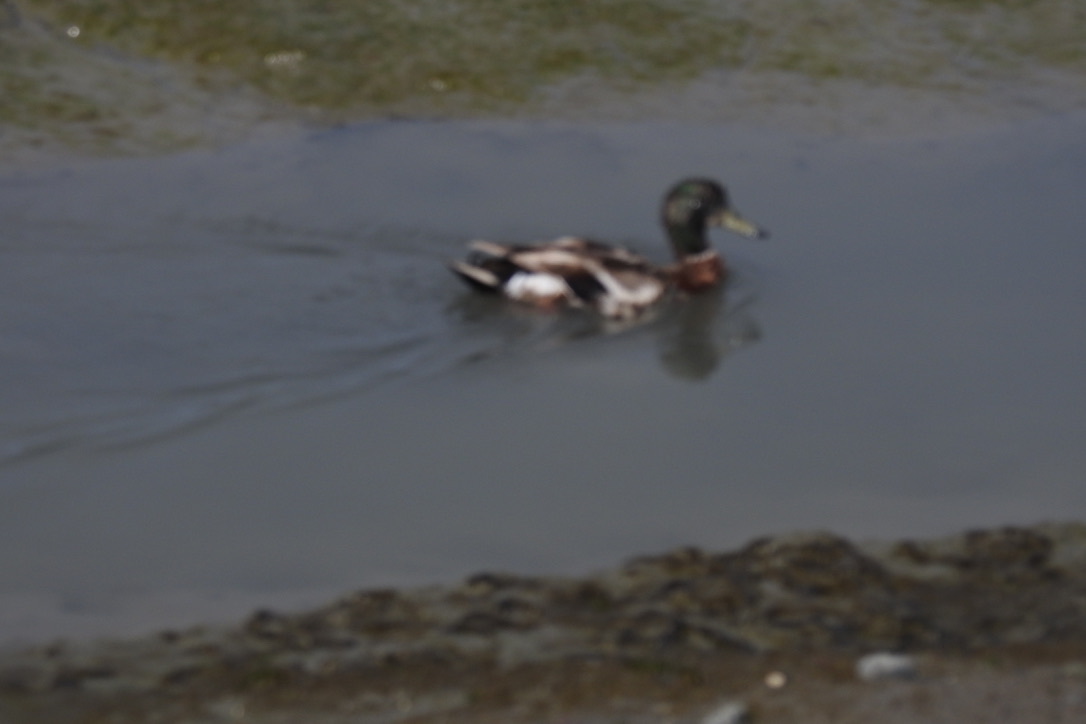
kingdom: Animalia
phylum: Chordata
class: Aves
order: Anseriformes
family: Anatidae
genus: Anas
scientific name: Anas platyrhynchos
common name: Mallard
